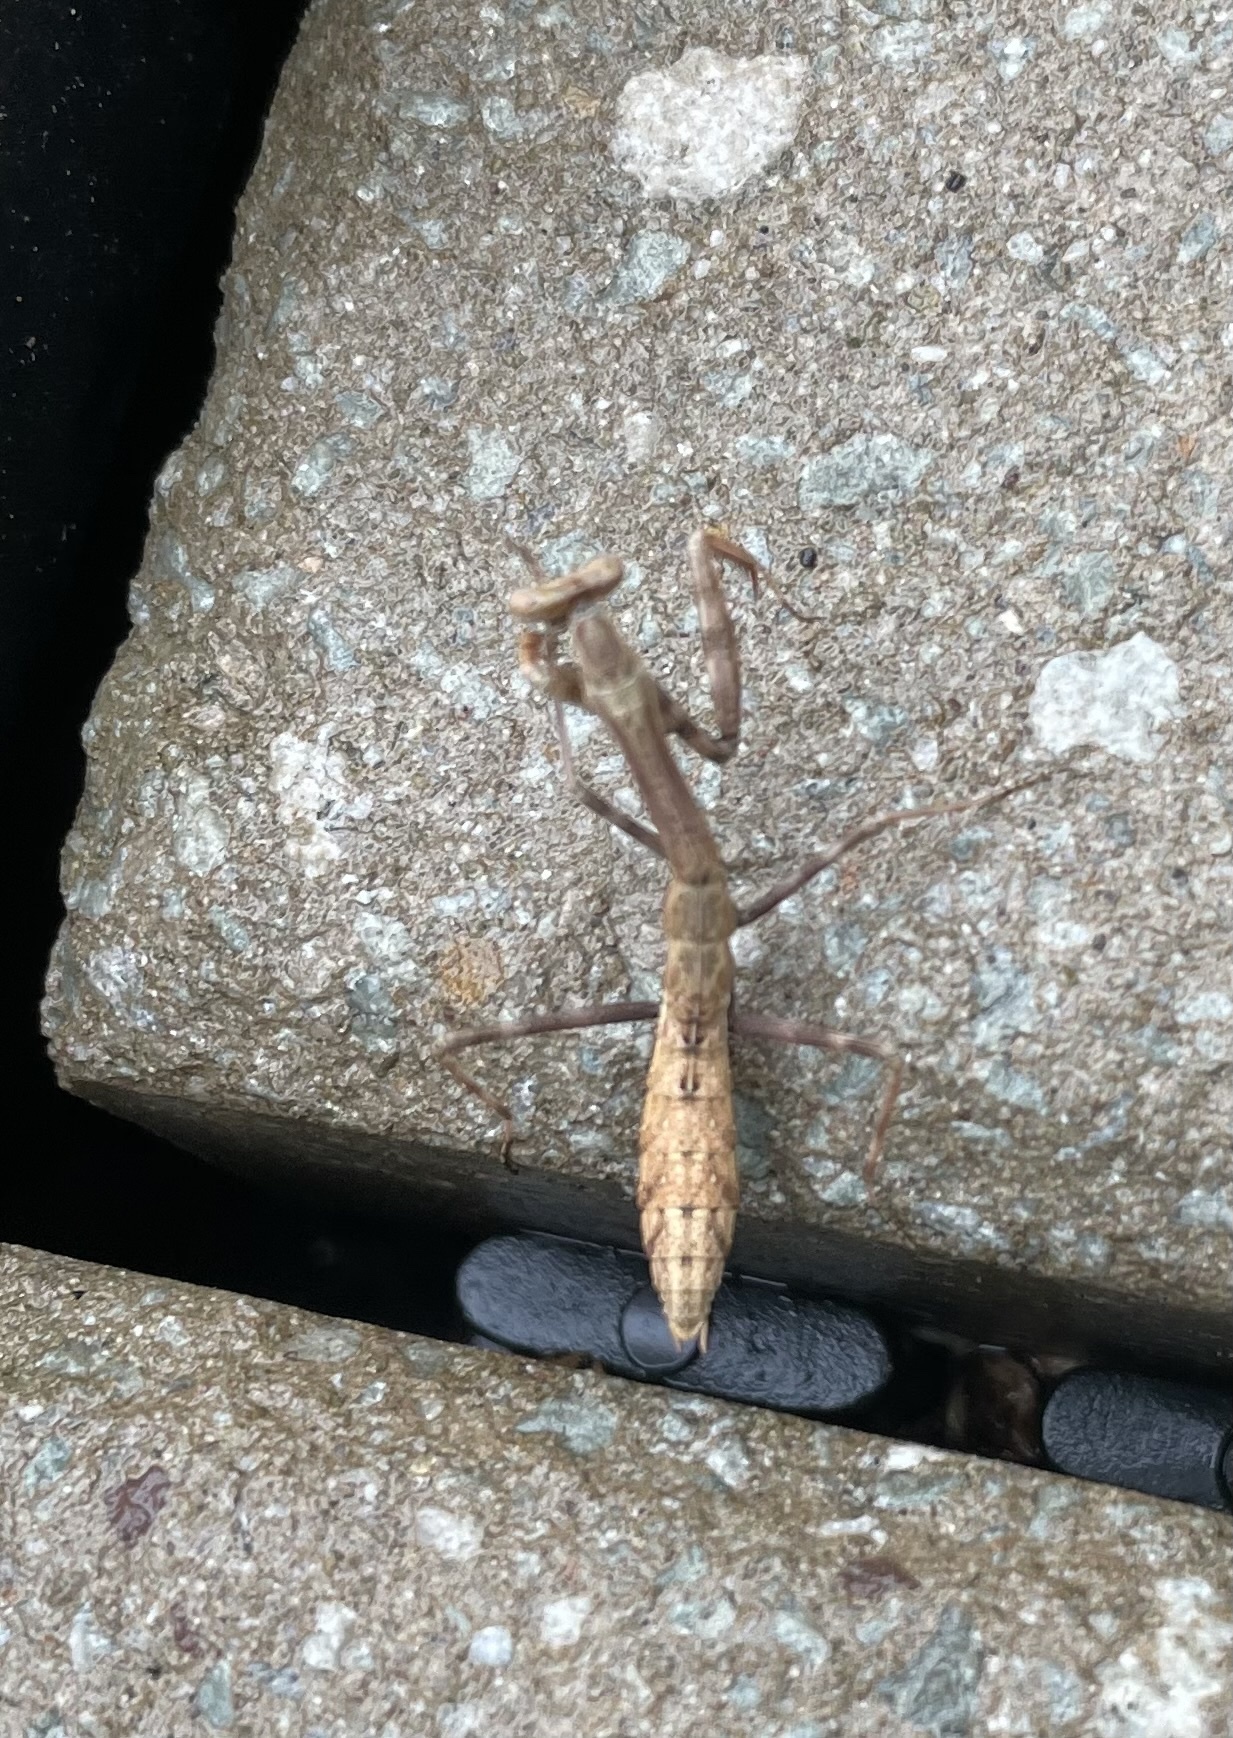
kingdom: Animalia
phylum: Arthropoda
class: Insecta
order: Mantodea
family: Mantidae
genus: Stagmomantis
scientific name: Stagmomantis carolina
